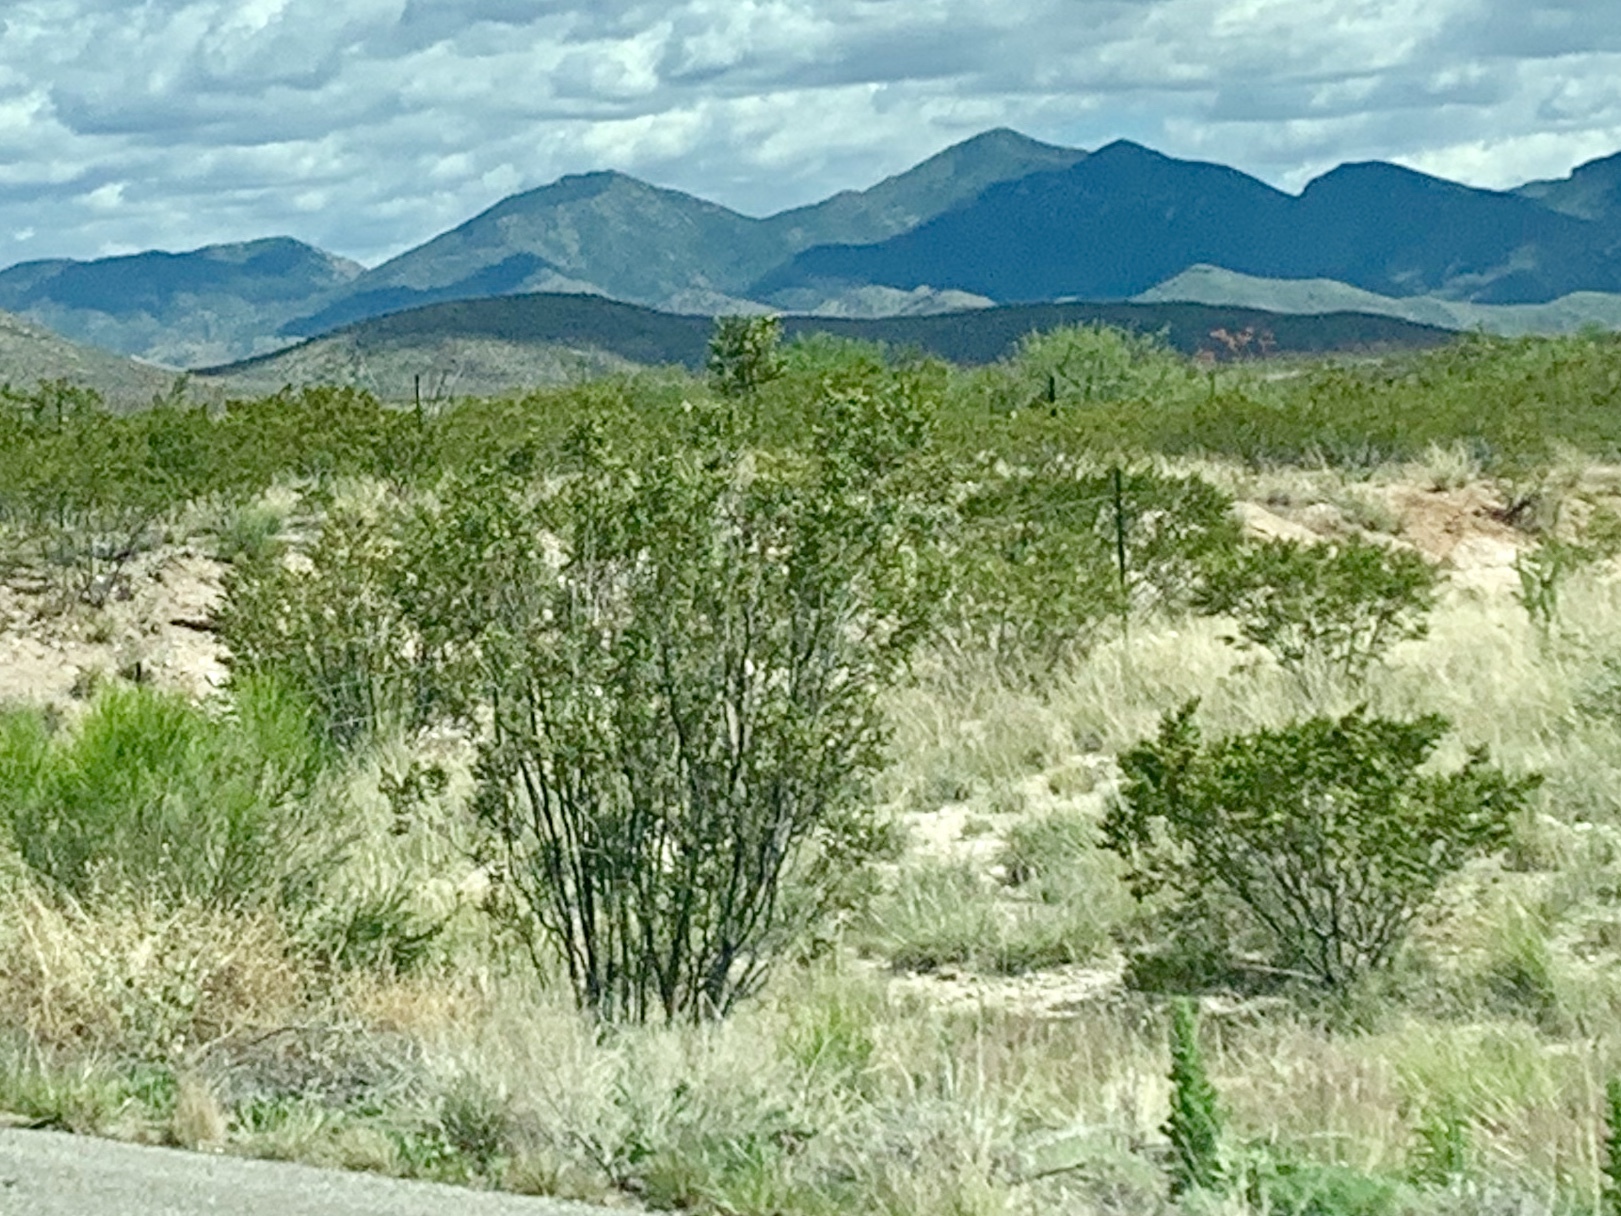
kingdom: Plantae
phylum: Tracheophyta
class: Magnoliopsida
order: Zygophyllales
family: Zygophyllaceae
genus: Larrea
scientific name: Larrea tridentata
